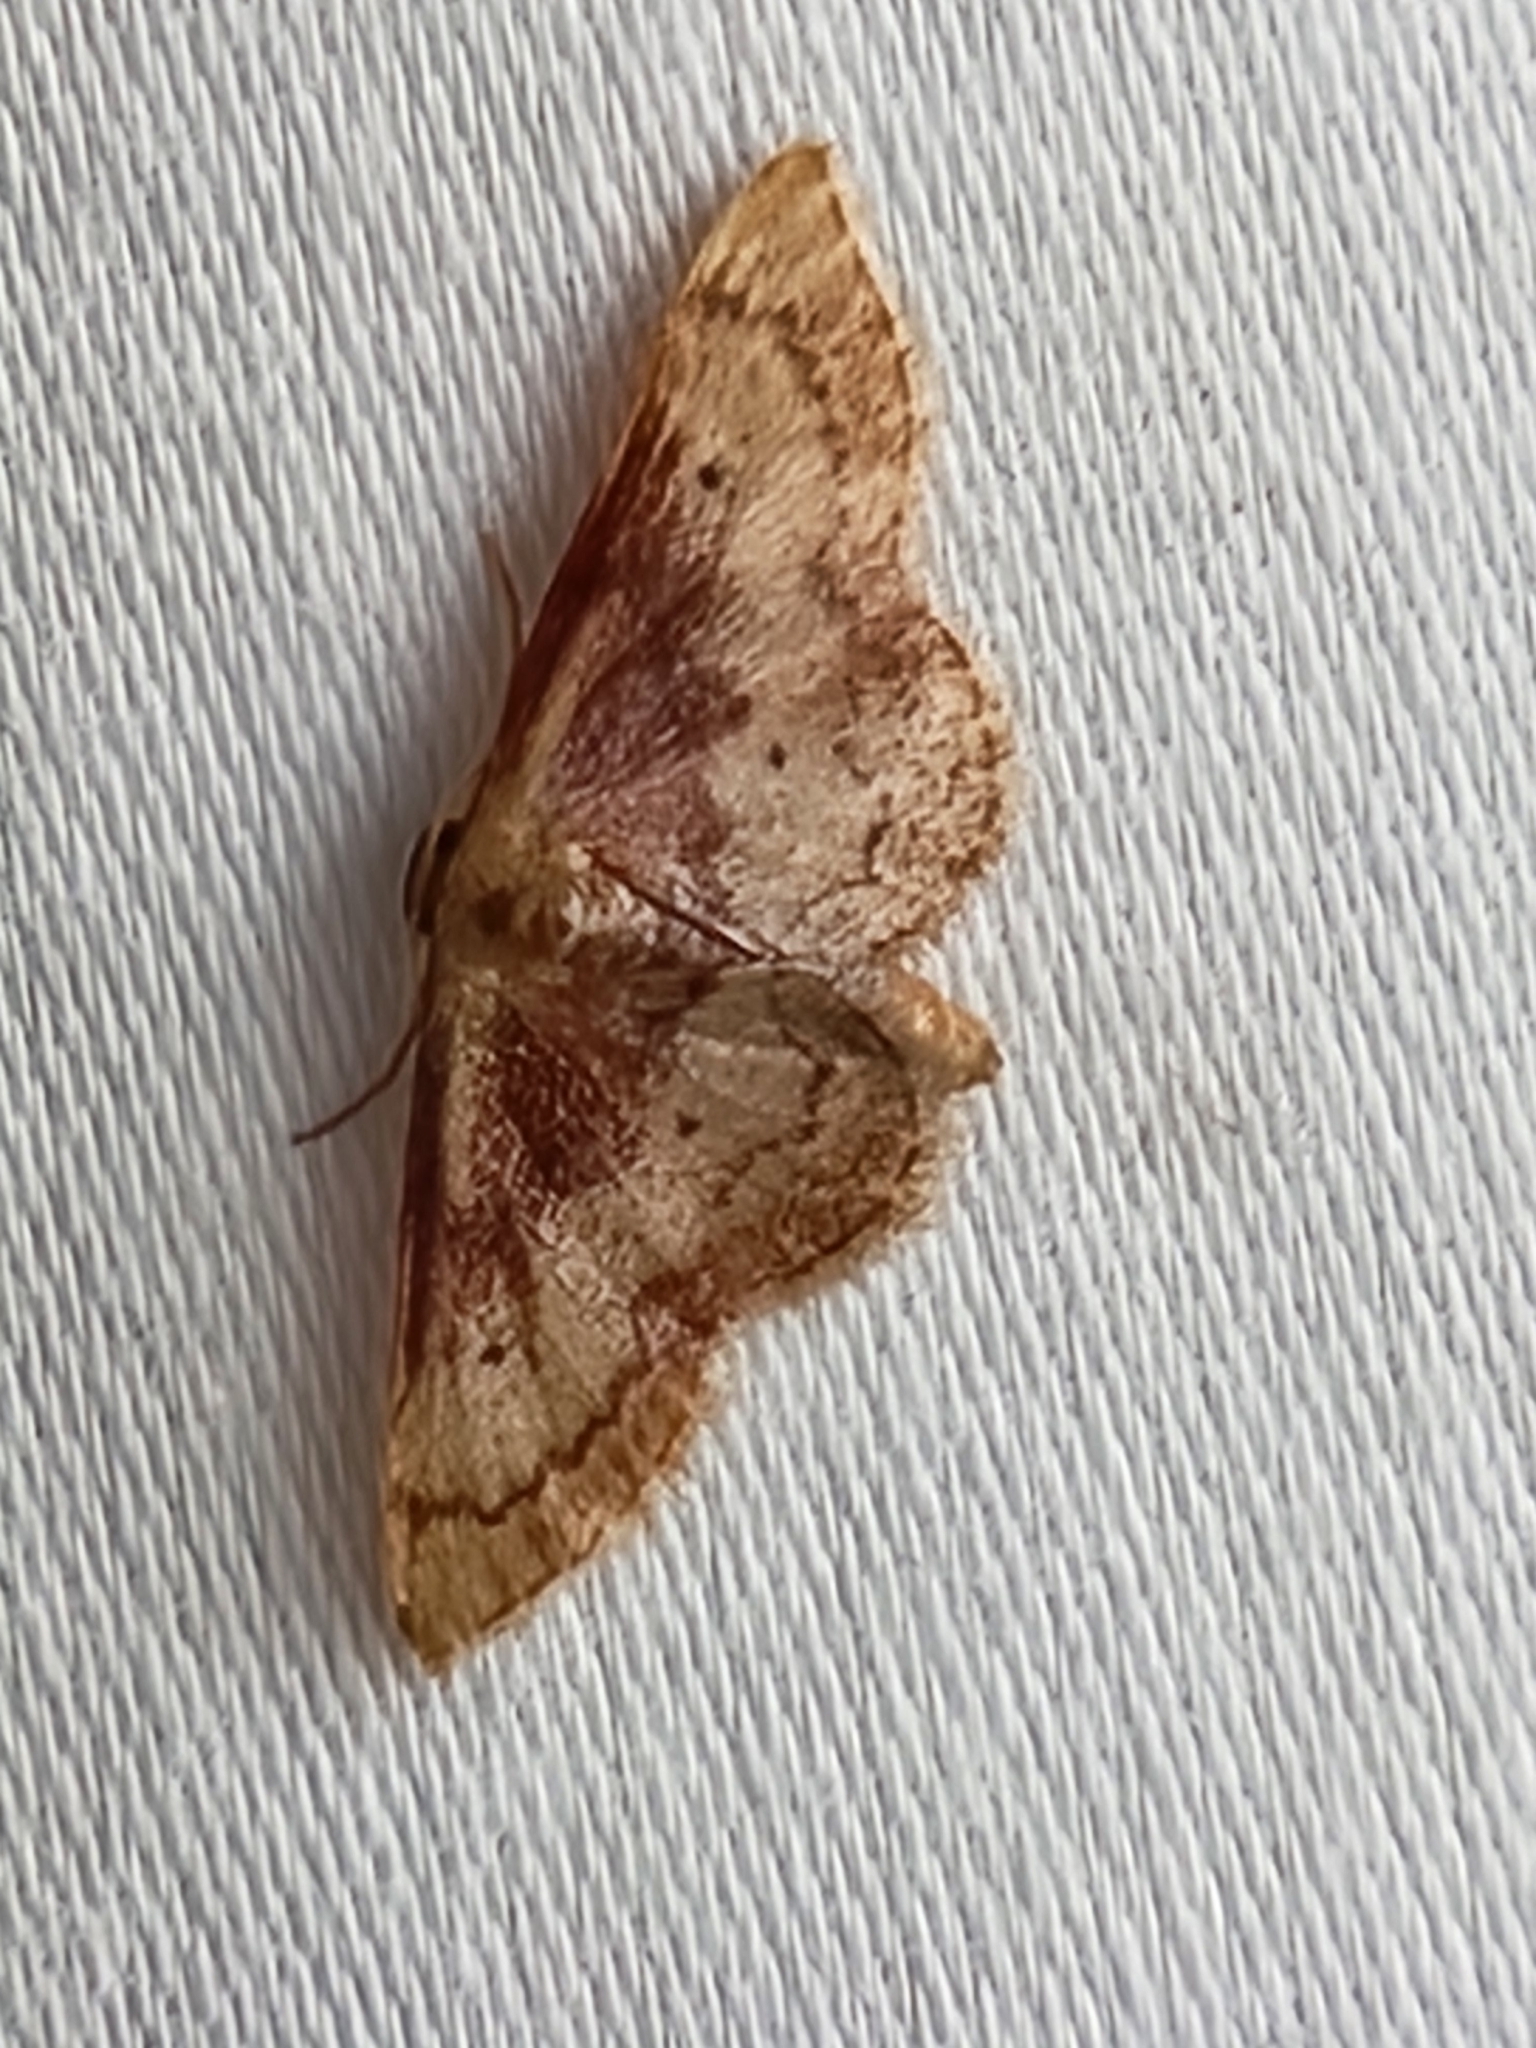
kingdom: Animalia
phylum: Arthropoda
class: Insecta
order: Lepidoptera
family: Geometridae
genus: Idaea
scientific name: Idaea demissaria
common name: Red-bordered wave
